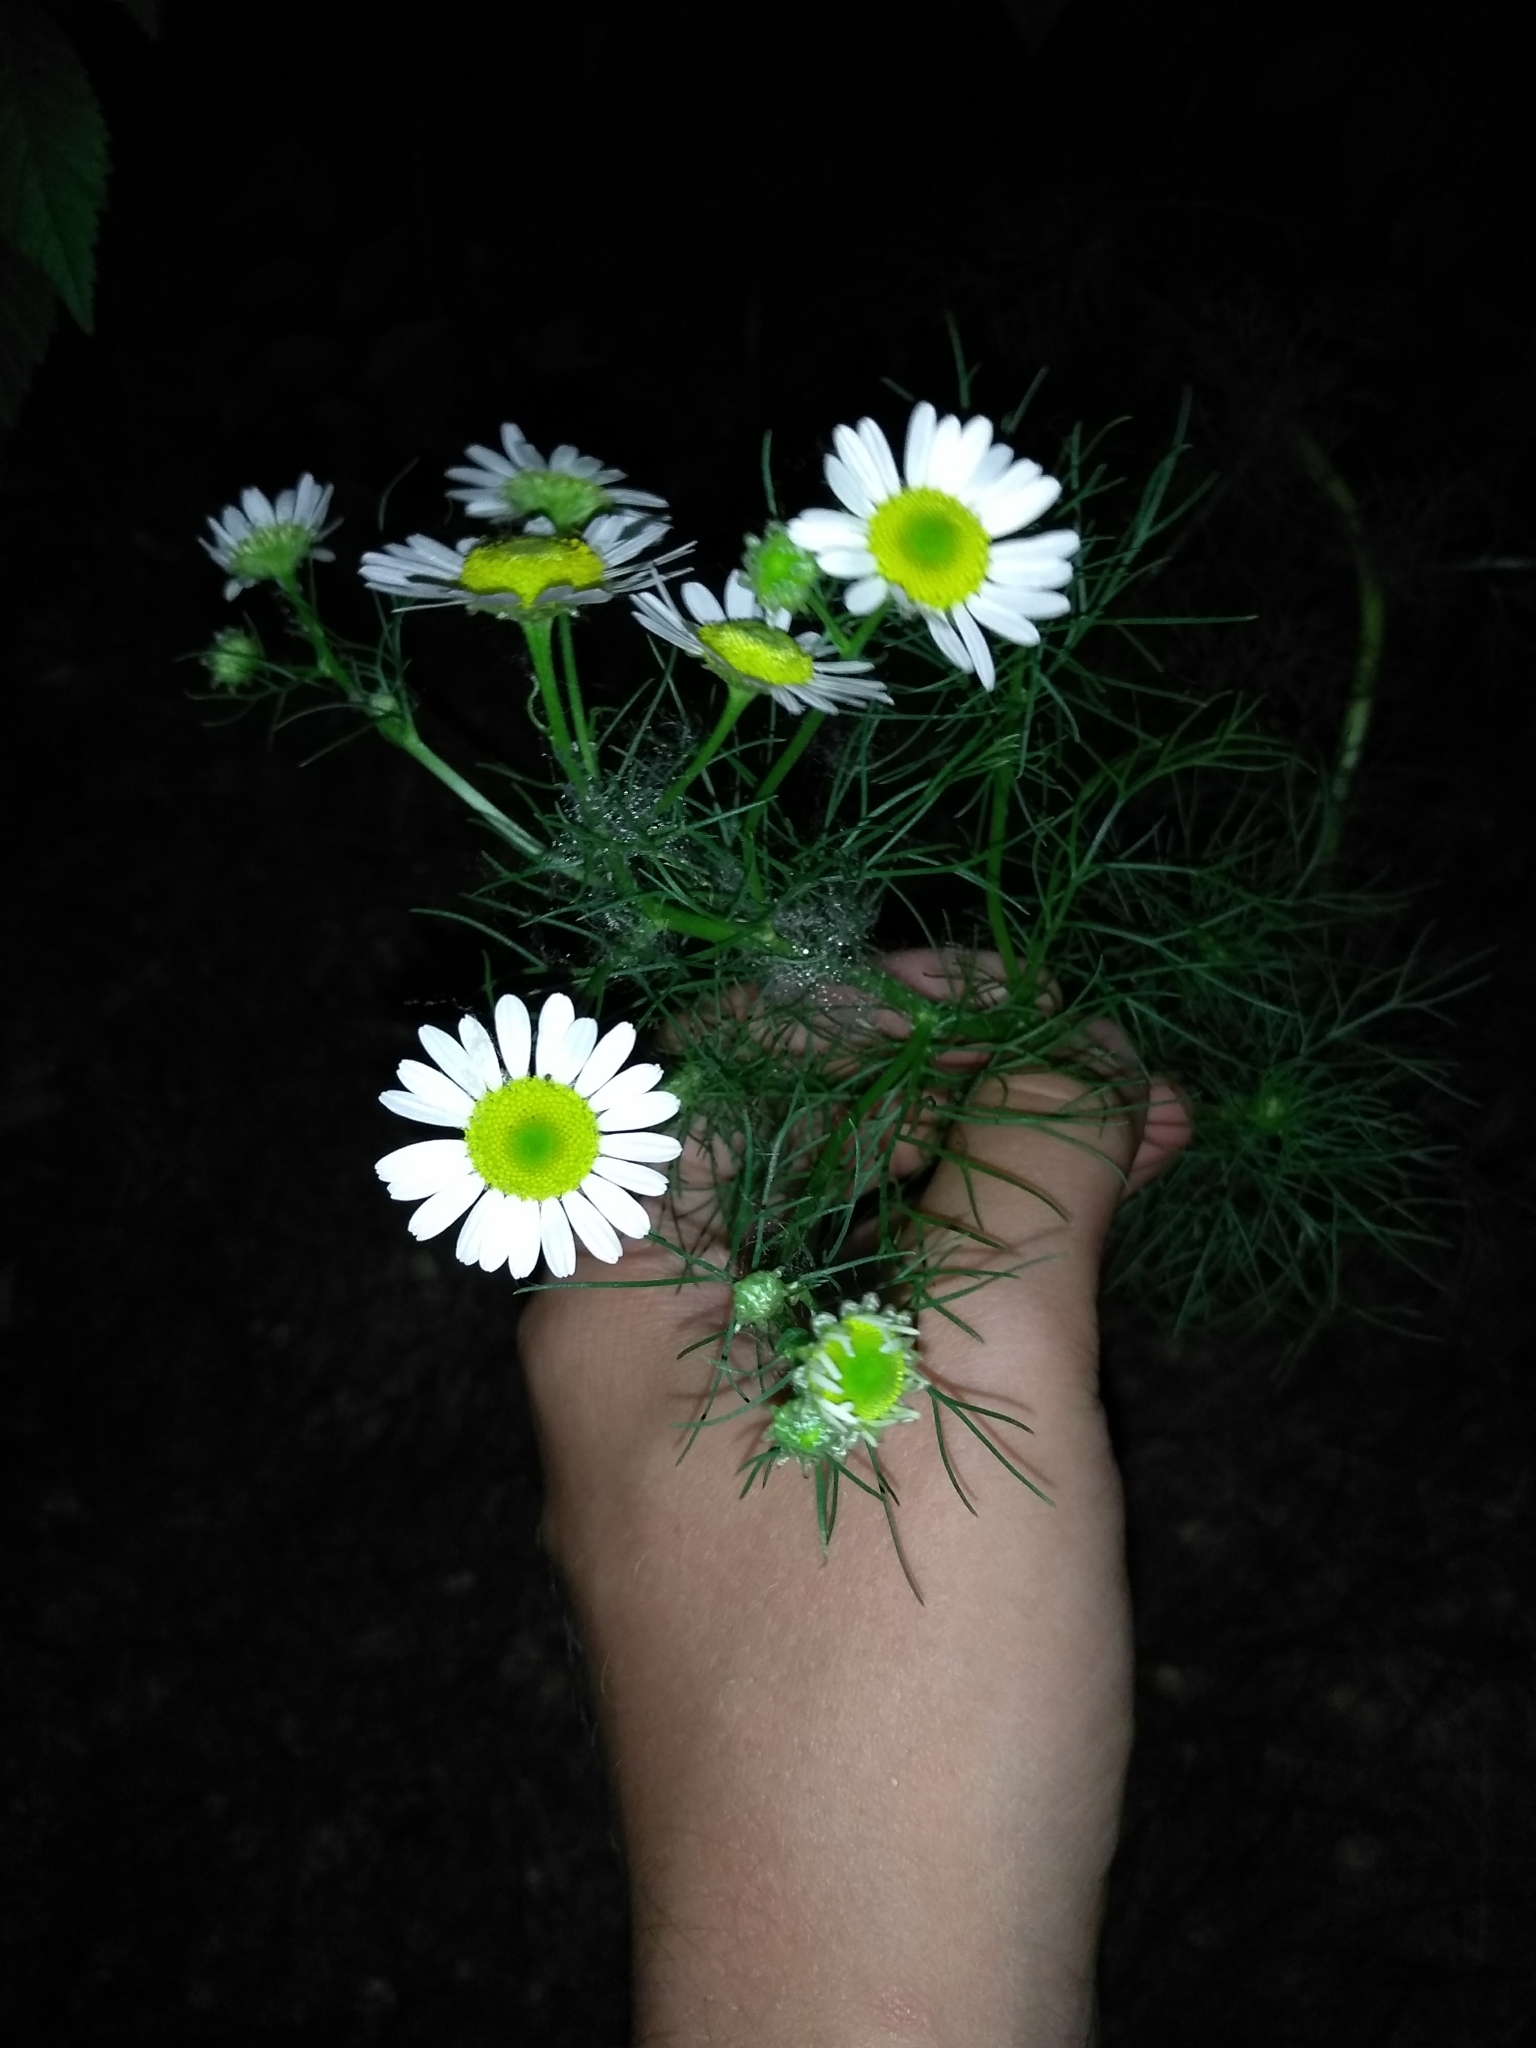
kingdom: Plantae
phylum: Tracheophyta
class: Magnoliopsida
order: Asterales
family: Asteraceae
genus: Tripleurospermum
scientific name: Tripleurospermum inodorum
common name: Scentless mayweed
